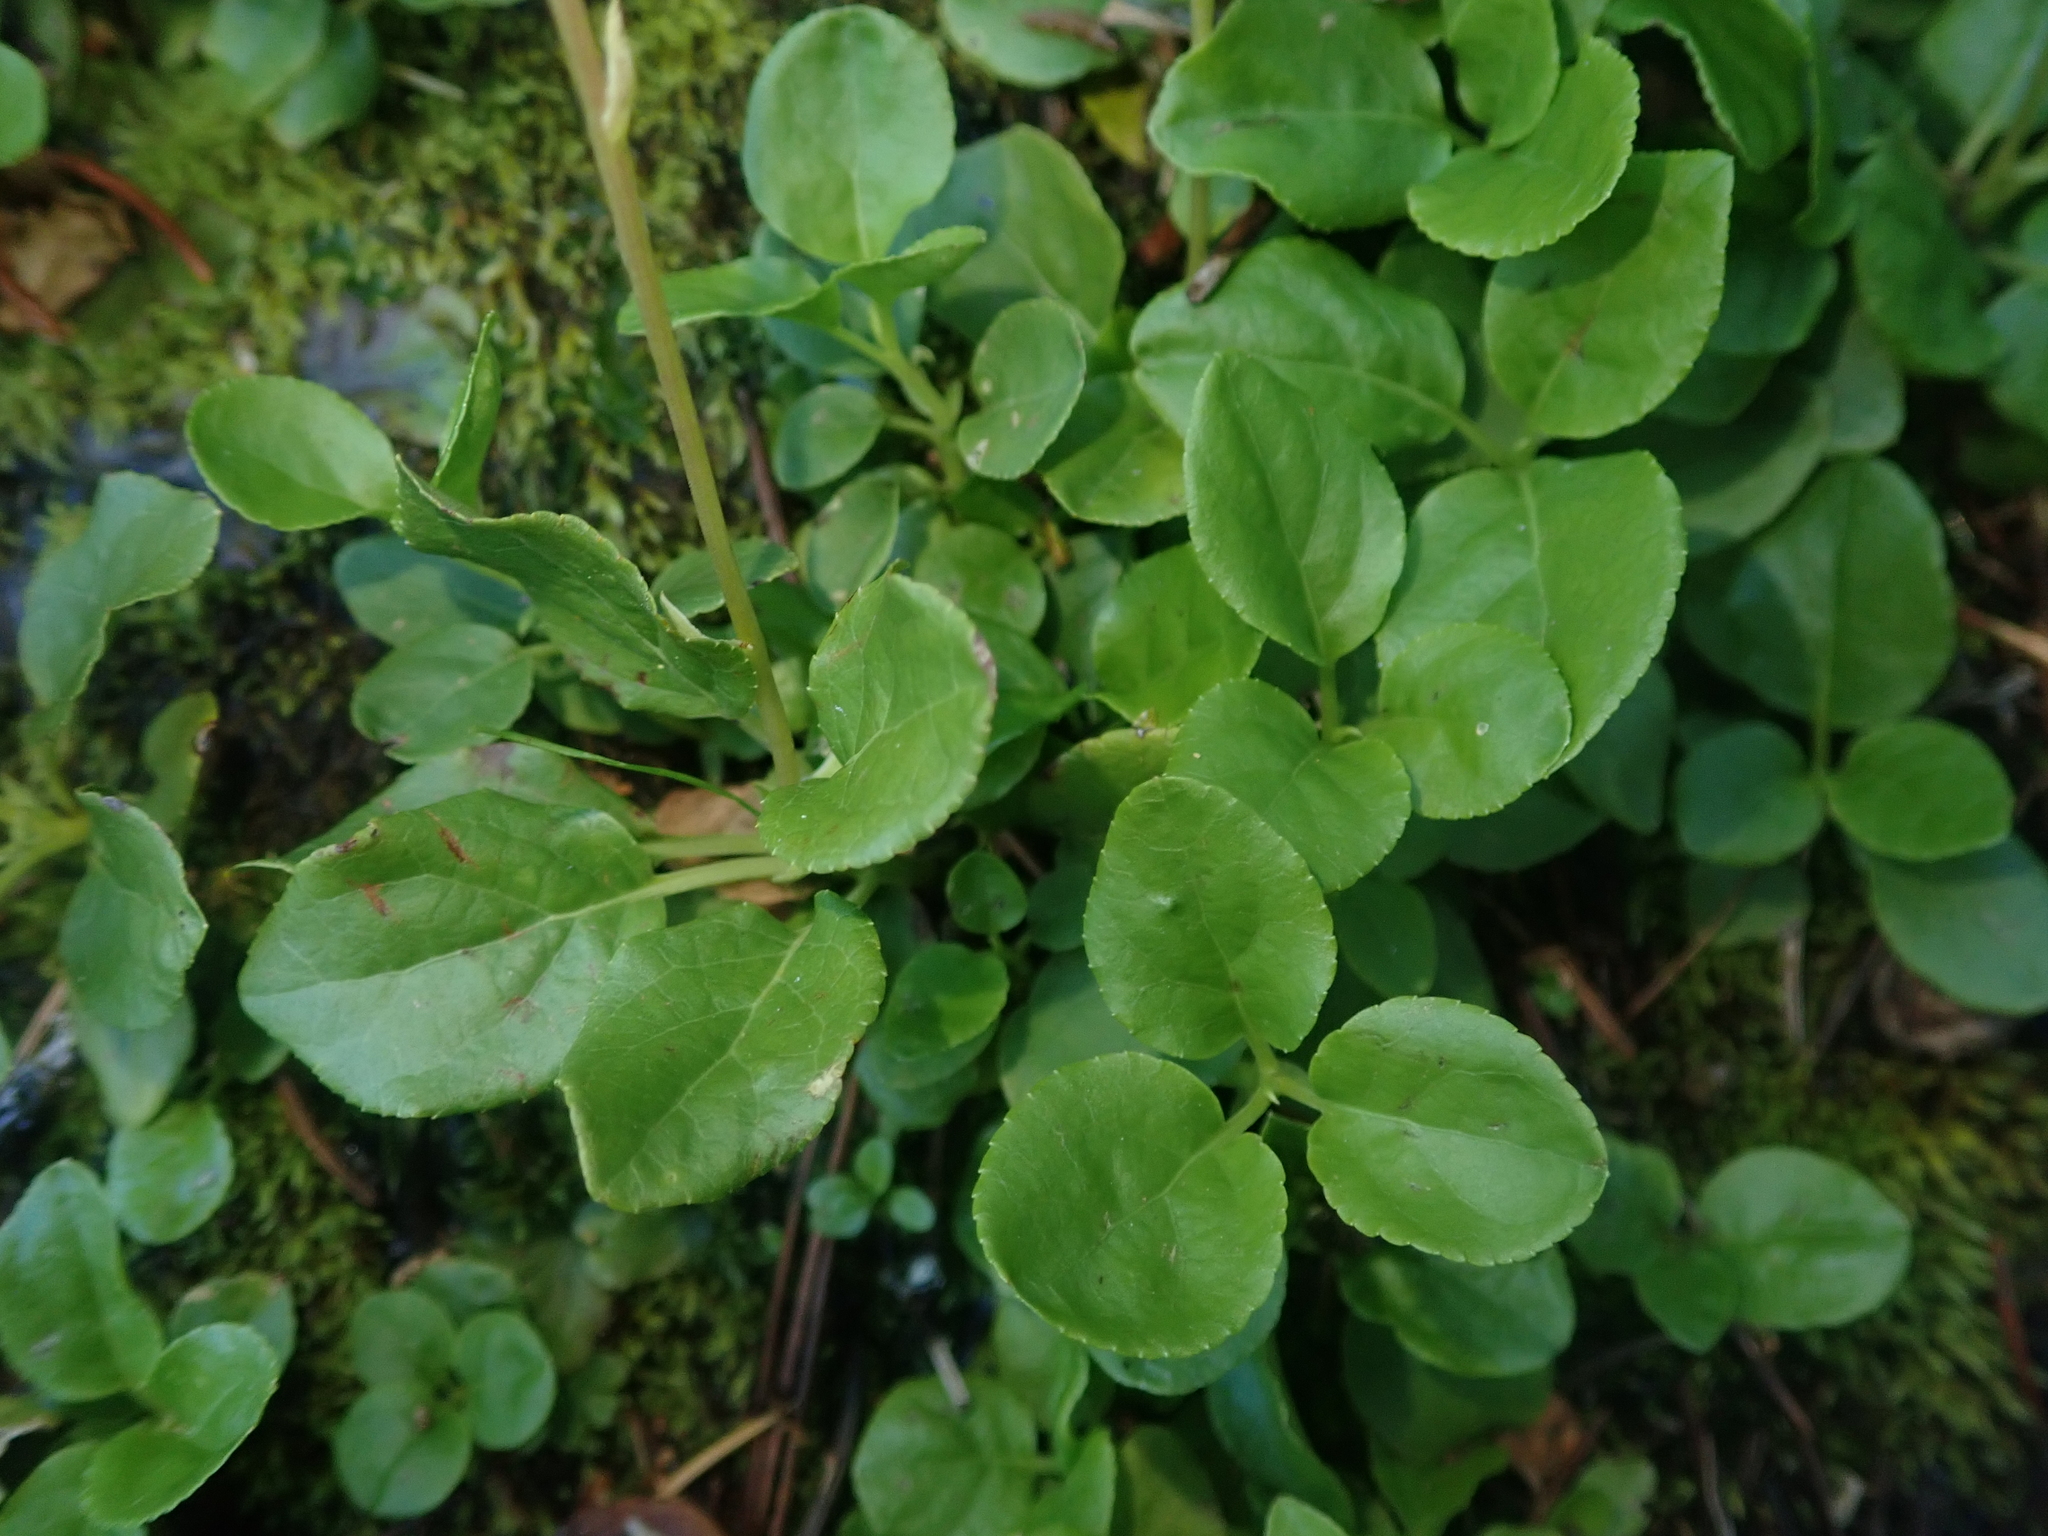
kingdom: Plantae
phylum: Tracheophyta
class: Magnoliopsida
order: Ericales
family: Ericaceae
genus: Orthilia
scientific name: Orthilia secunda
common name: One-sided orthilia
